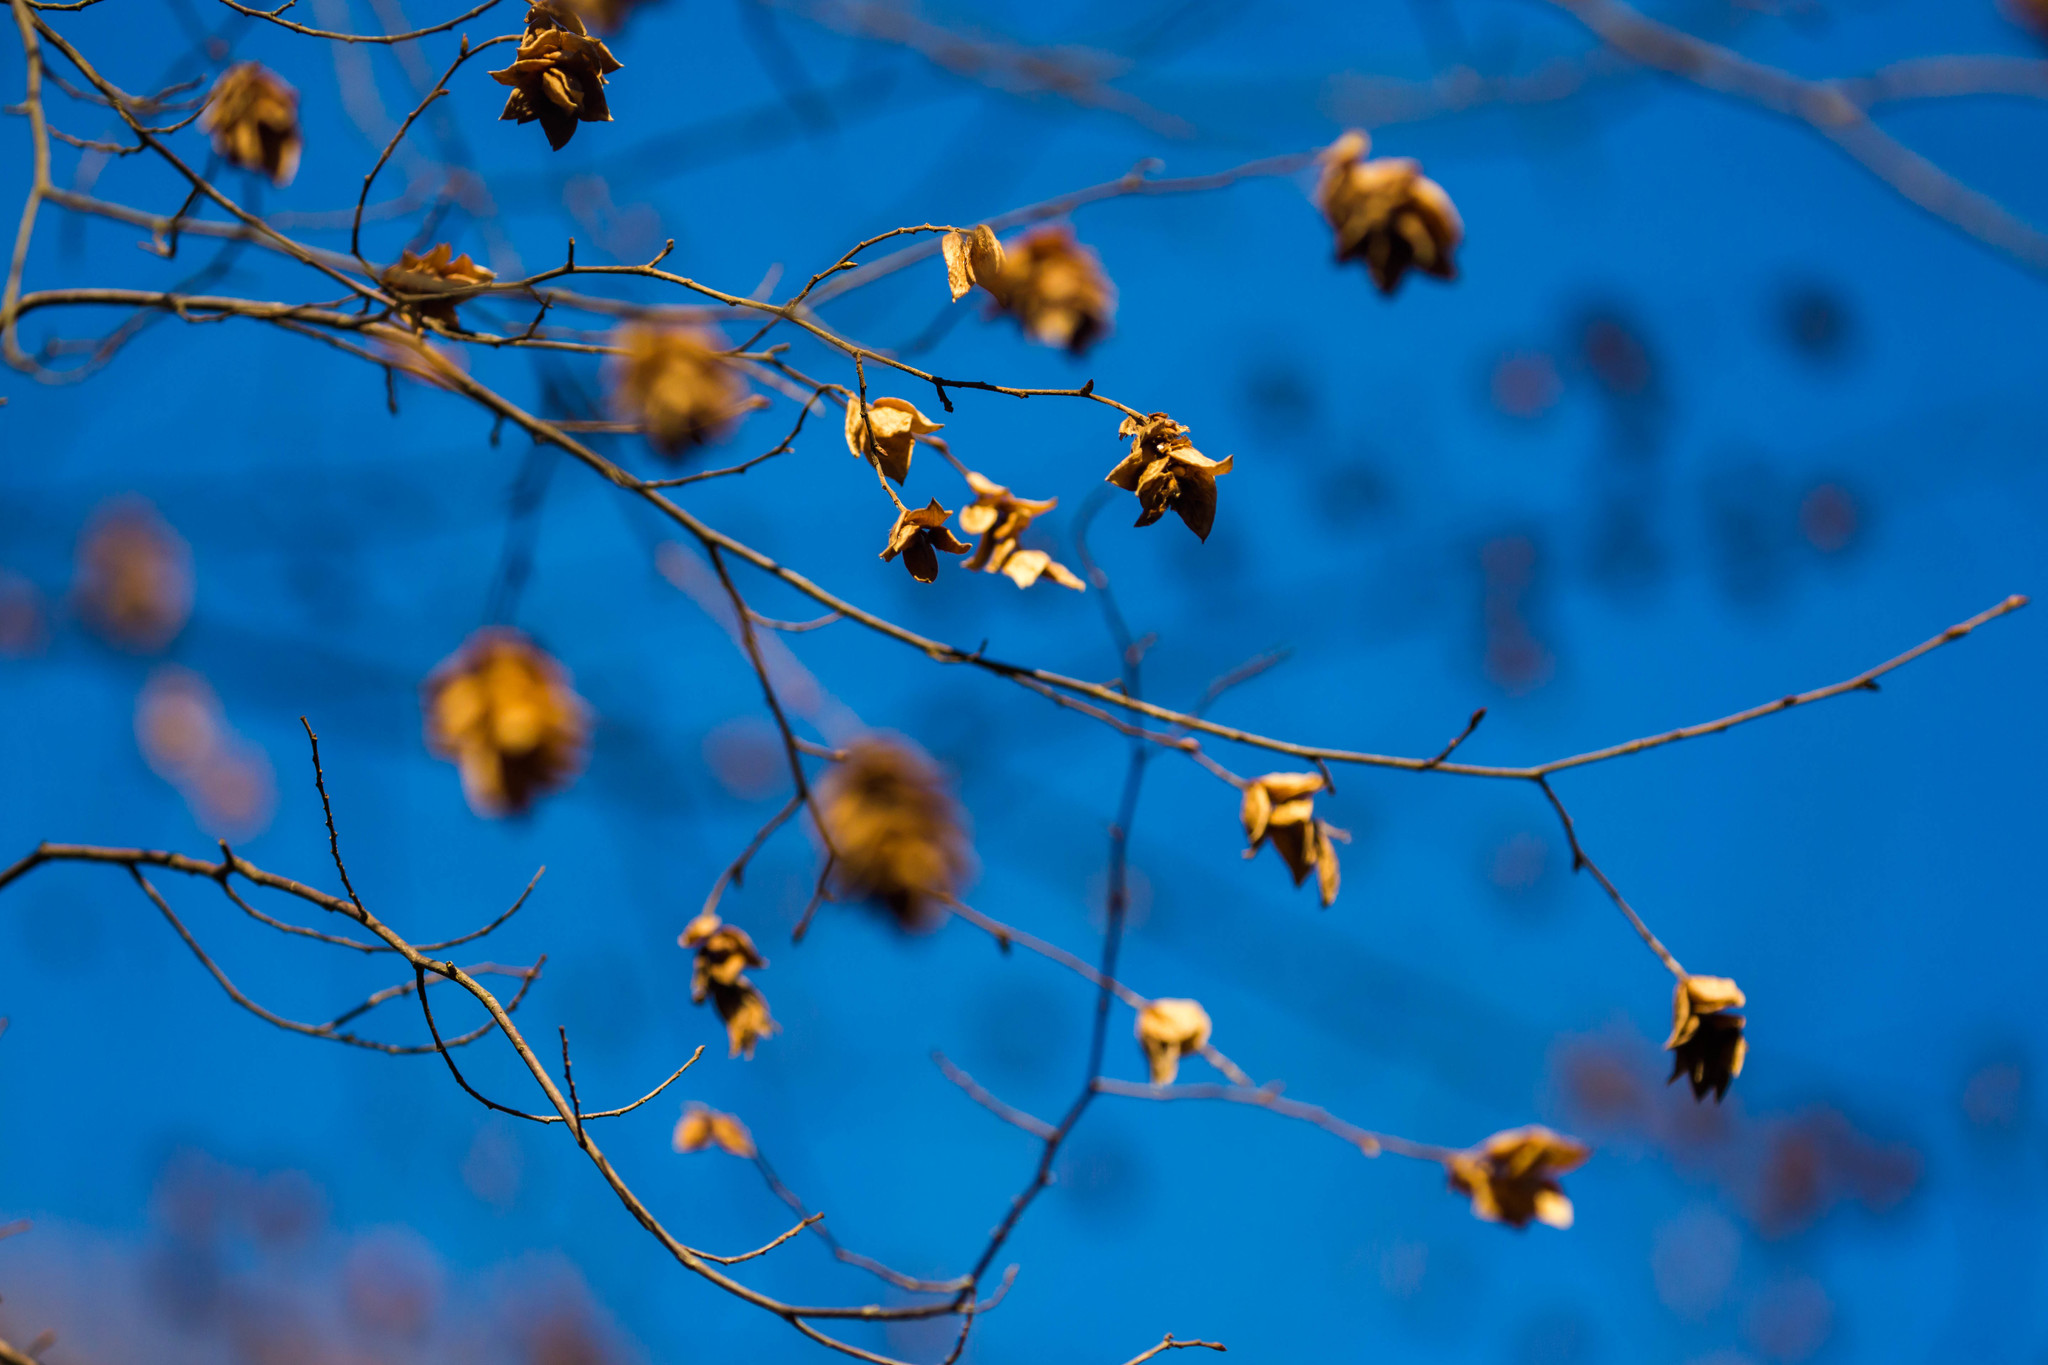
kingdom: Plantae
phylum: Tracheophyta
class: Magnoliopsida
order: Fagales
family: Betulaceae
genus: Carpinus
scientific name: Carpinus caroliniana
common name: American hornbeam
